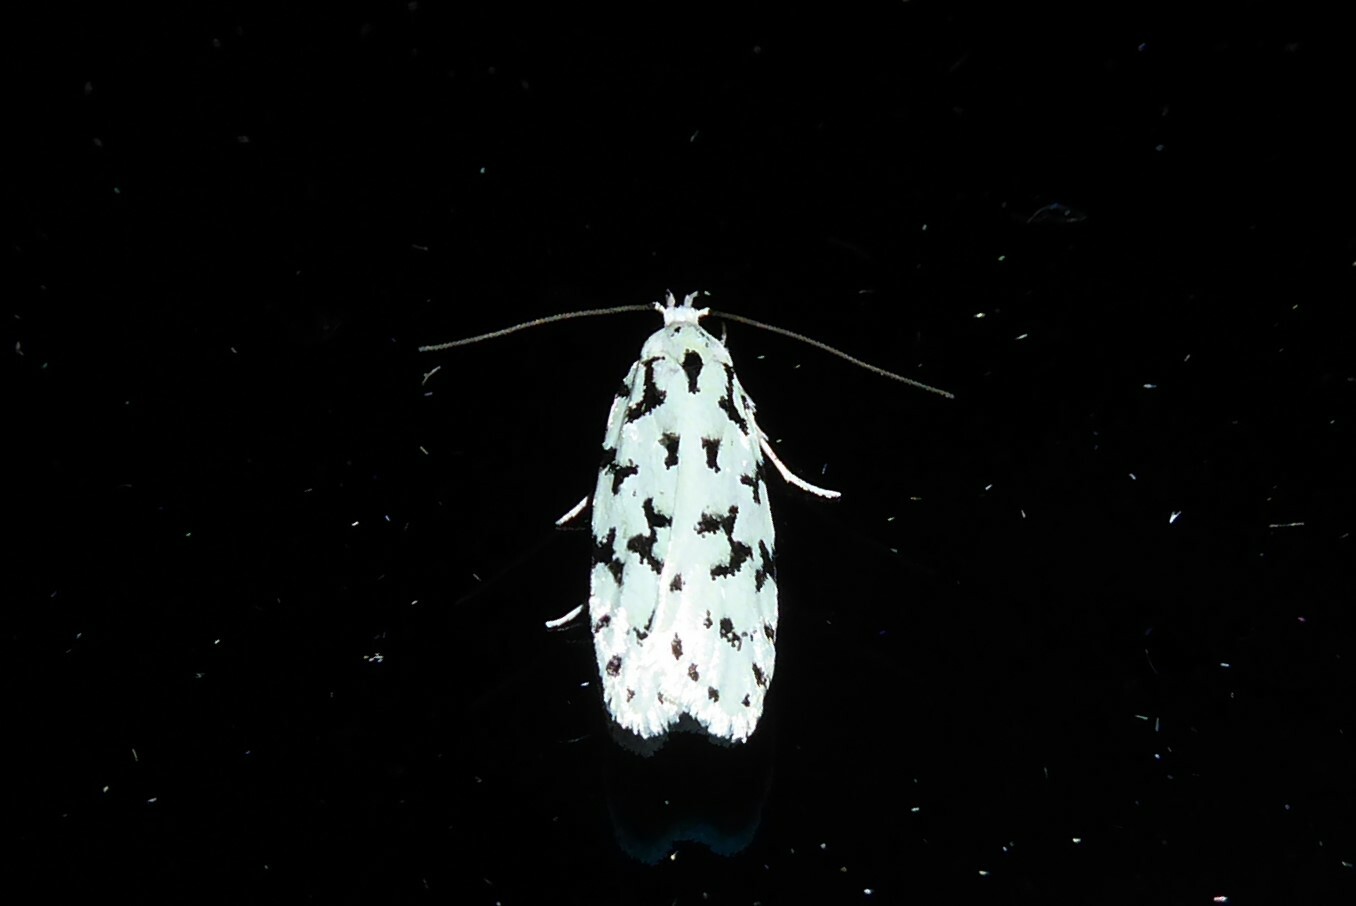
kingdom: Animalia
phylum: Arthropoda
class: Insecta
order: Lepidoptera
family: Oecophoridae
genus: Izatha
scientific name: Izatha huttoni
